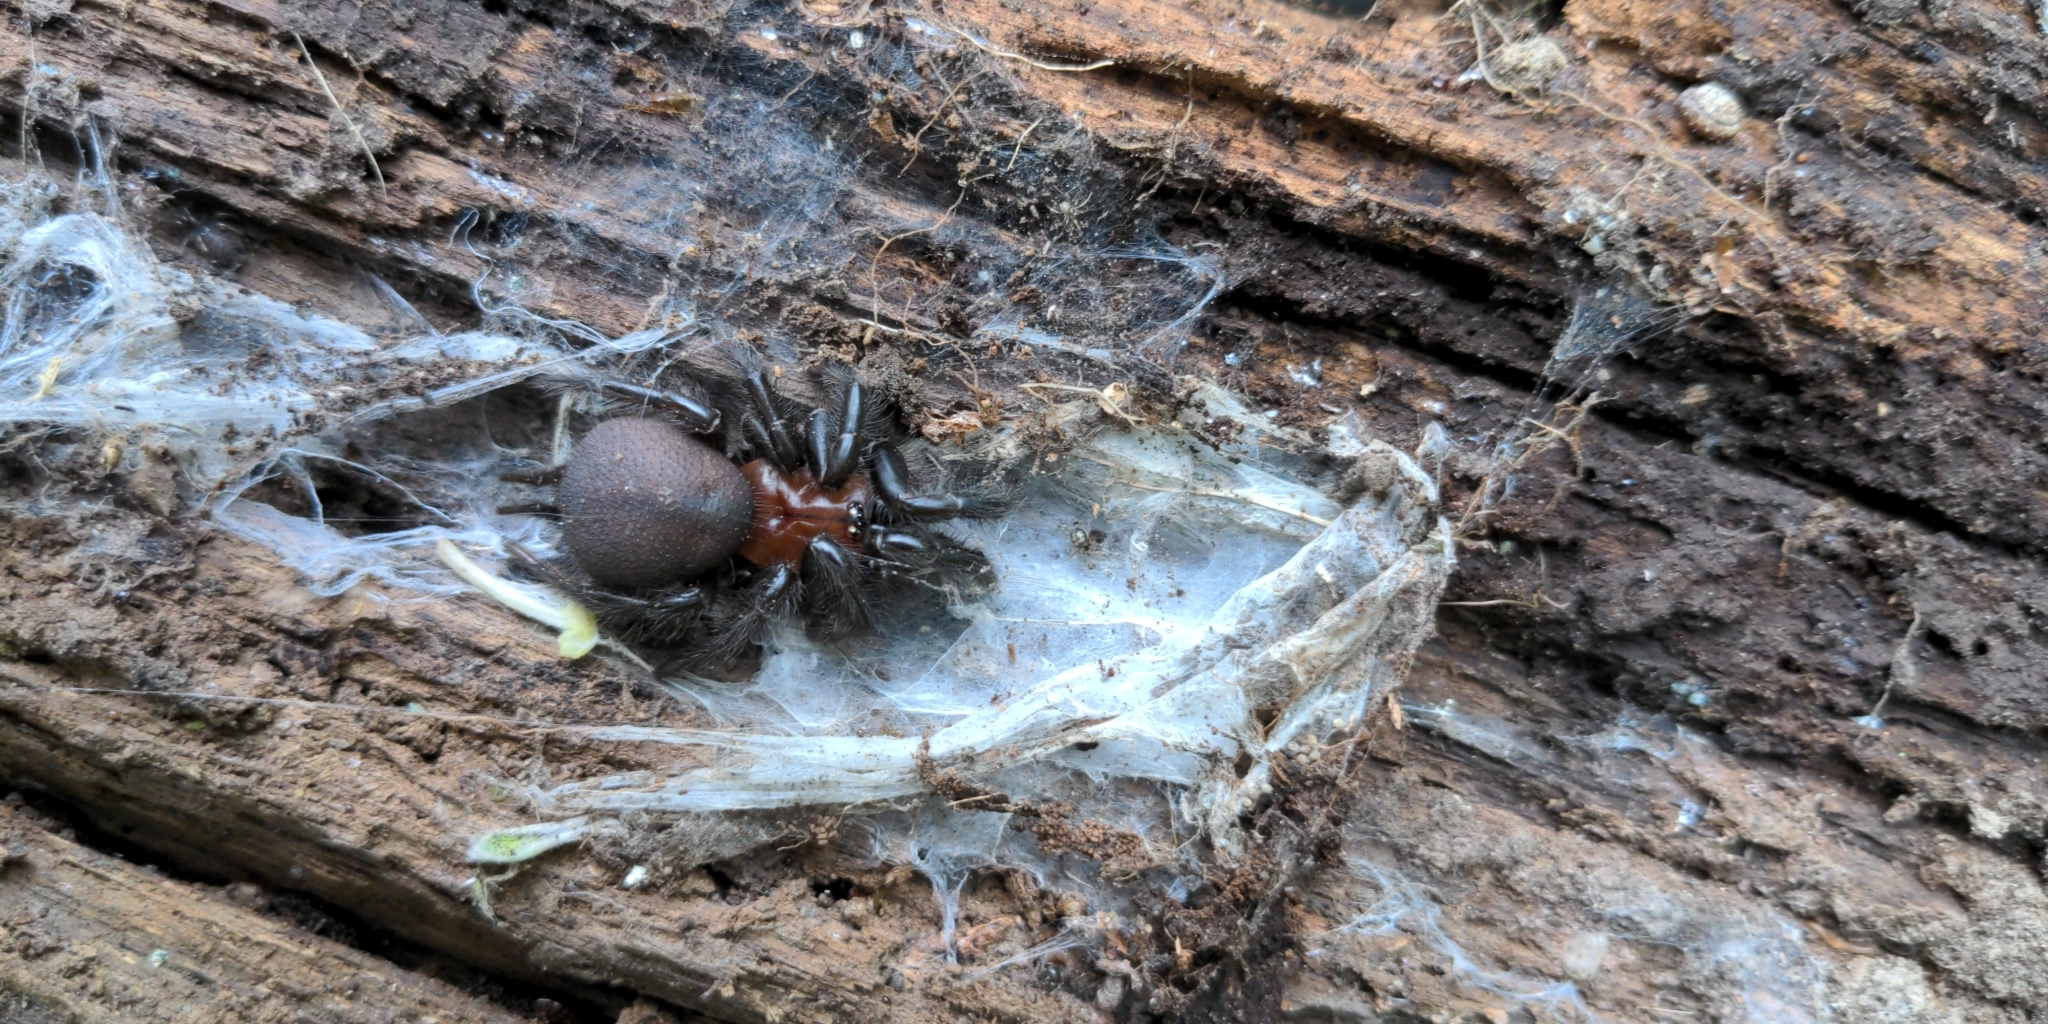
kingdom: Animalia
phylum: Arthropoda
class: Arachnida
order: Araneae
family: Porrhothelidae
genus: Porrhothele
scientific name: Porrhothele antipodiana
